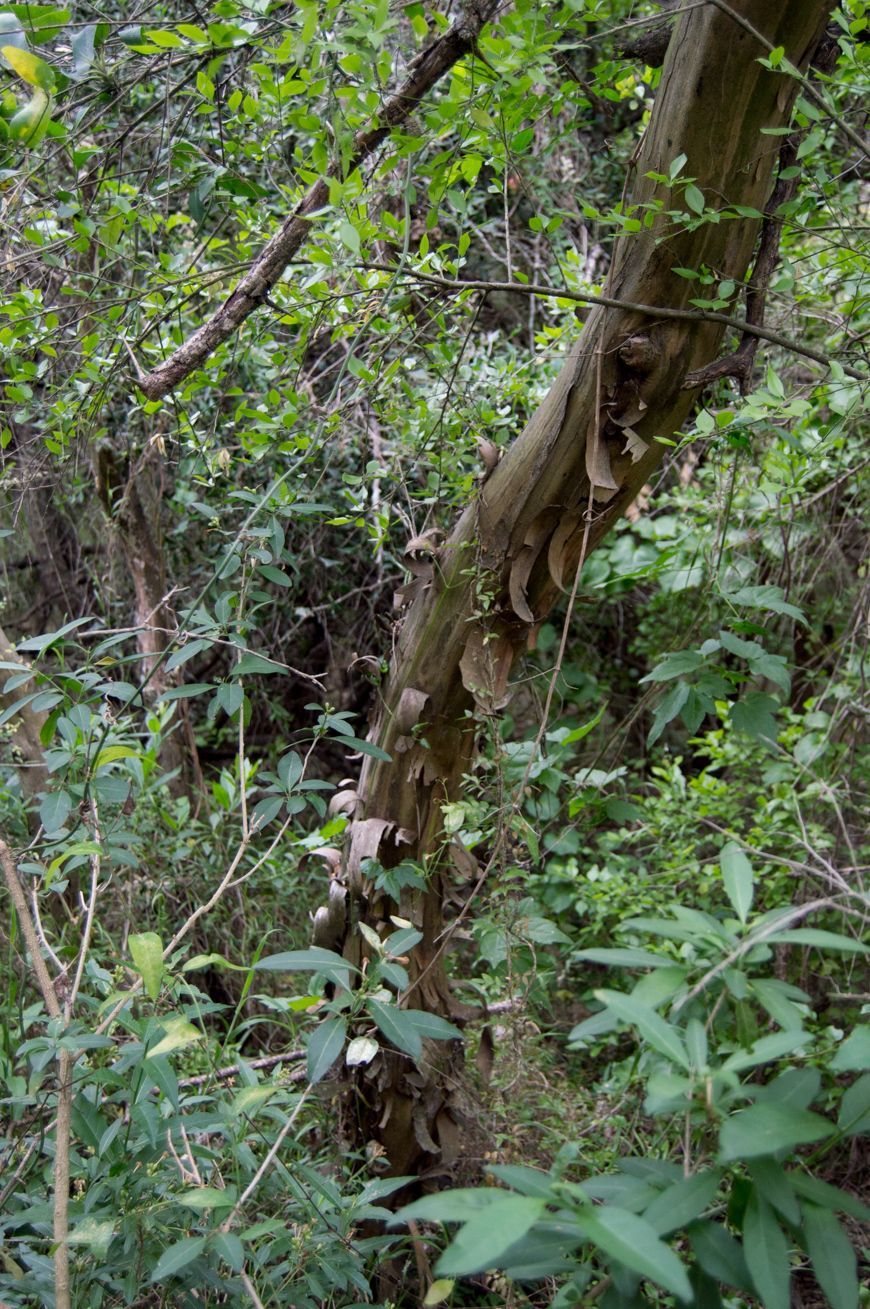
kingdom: Plantae
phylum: Tracheophyta
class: Magnoliopsida
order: Fabales
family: Fabaceae
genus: Geoffroea
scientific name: Geoffroea decorticans
